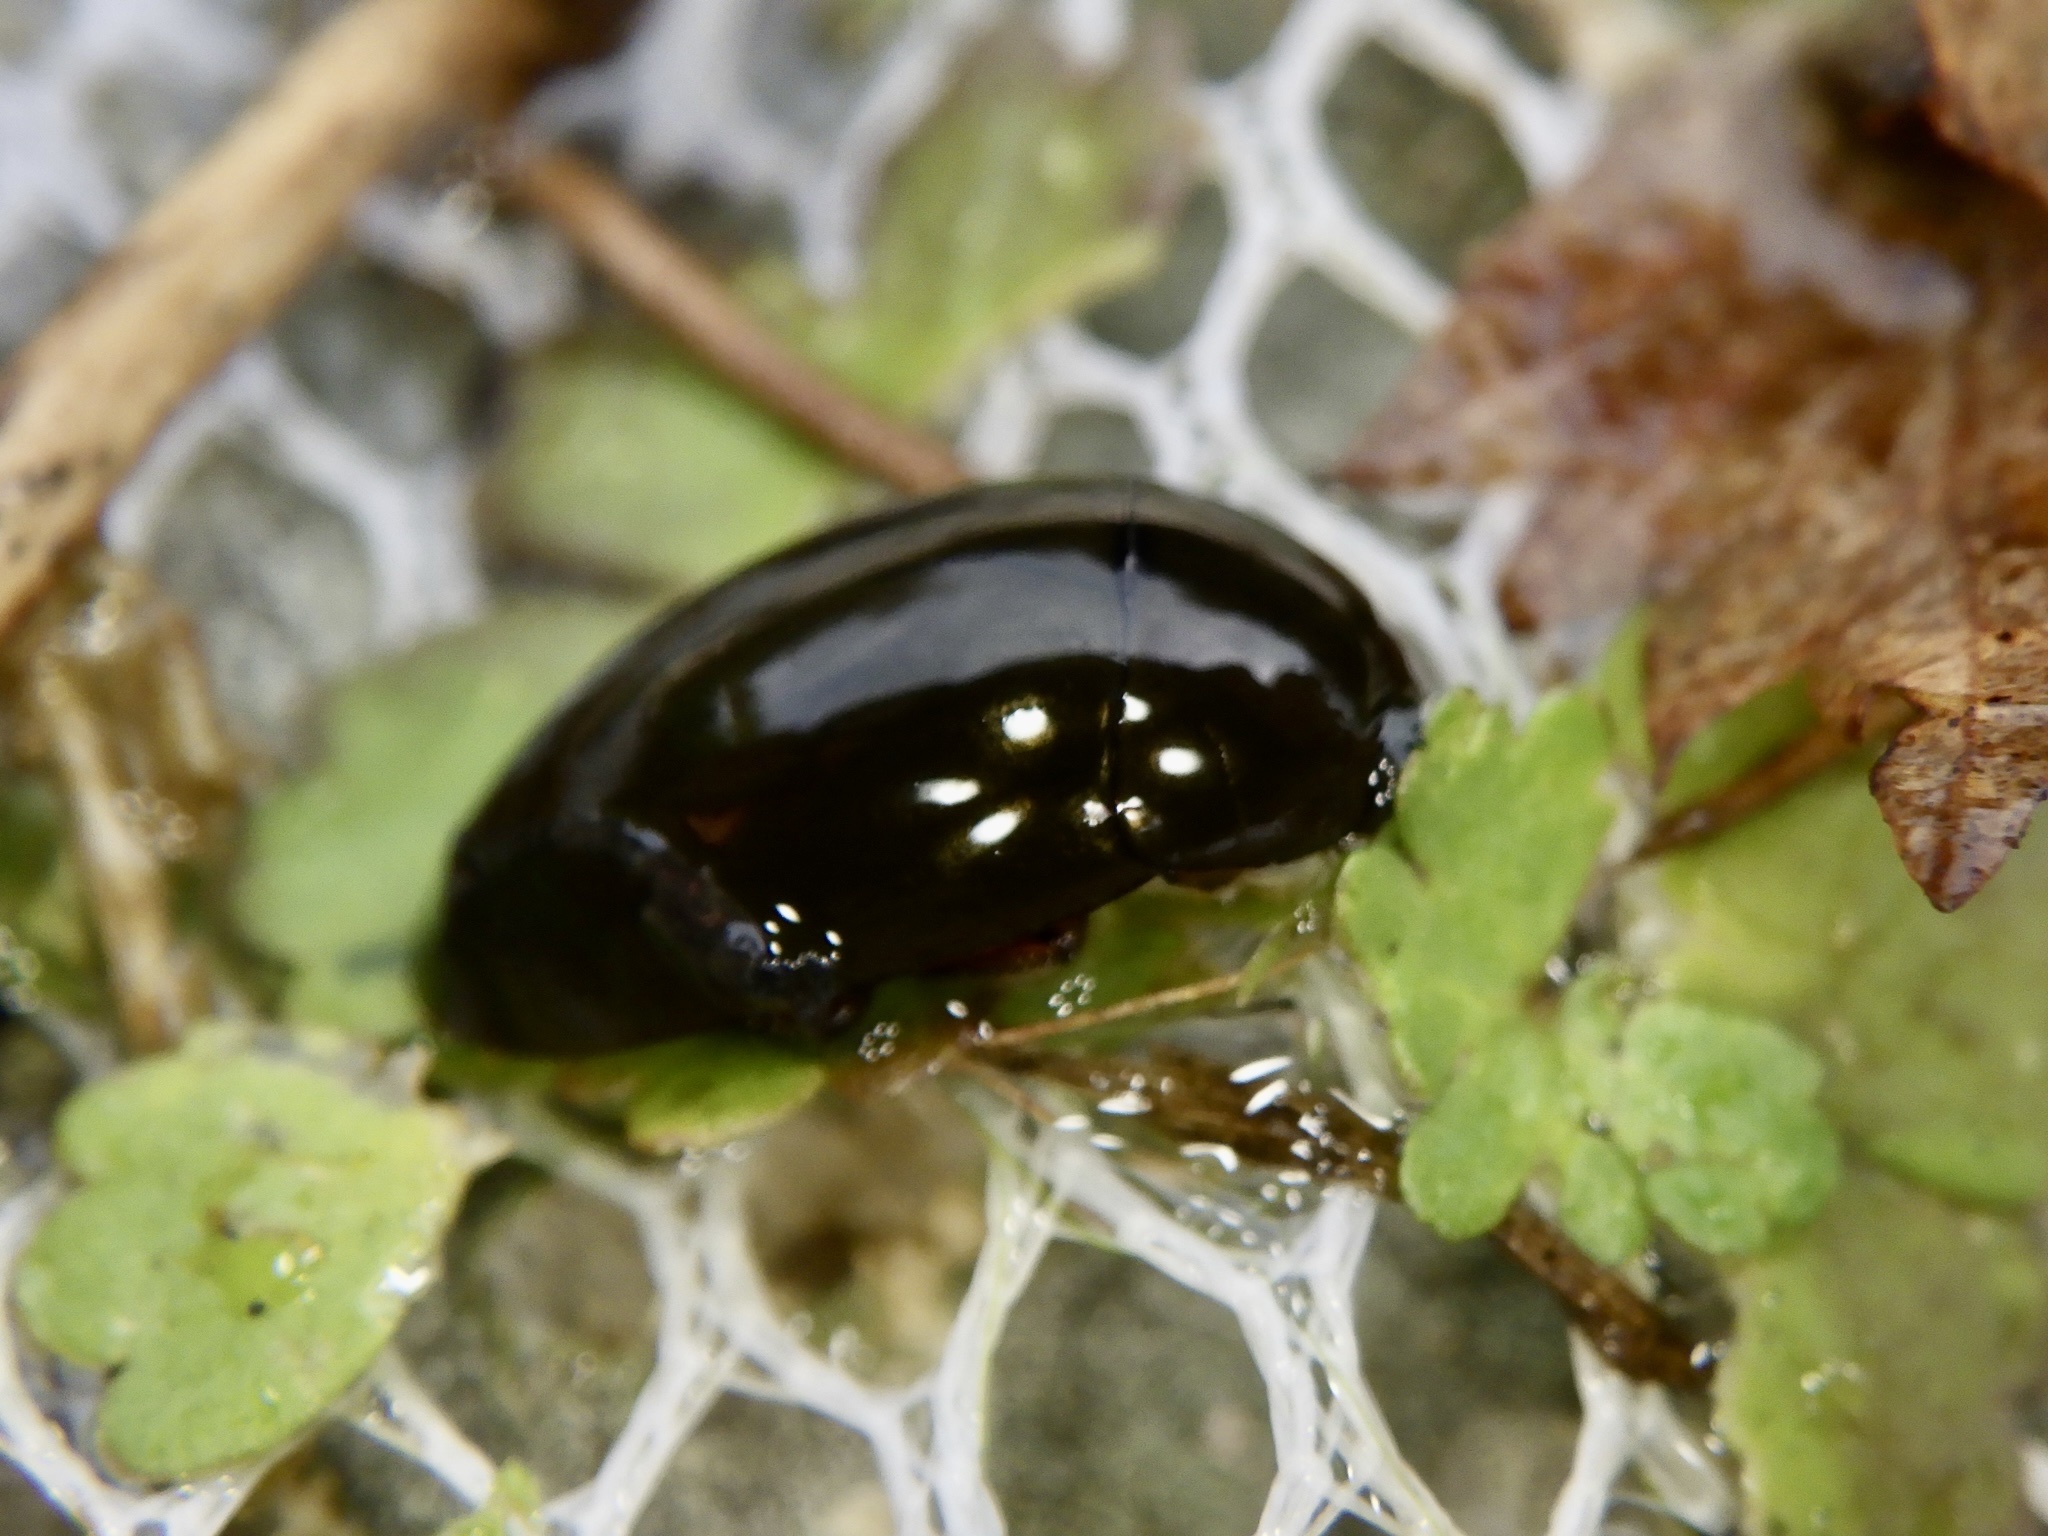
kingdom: Animalia
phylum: Arthropoda
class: Insecta
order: Coleoptera
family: Hydrophilidae
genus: Hydrochara
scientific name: Hydrochara affinis
